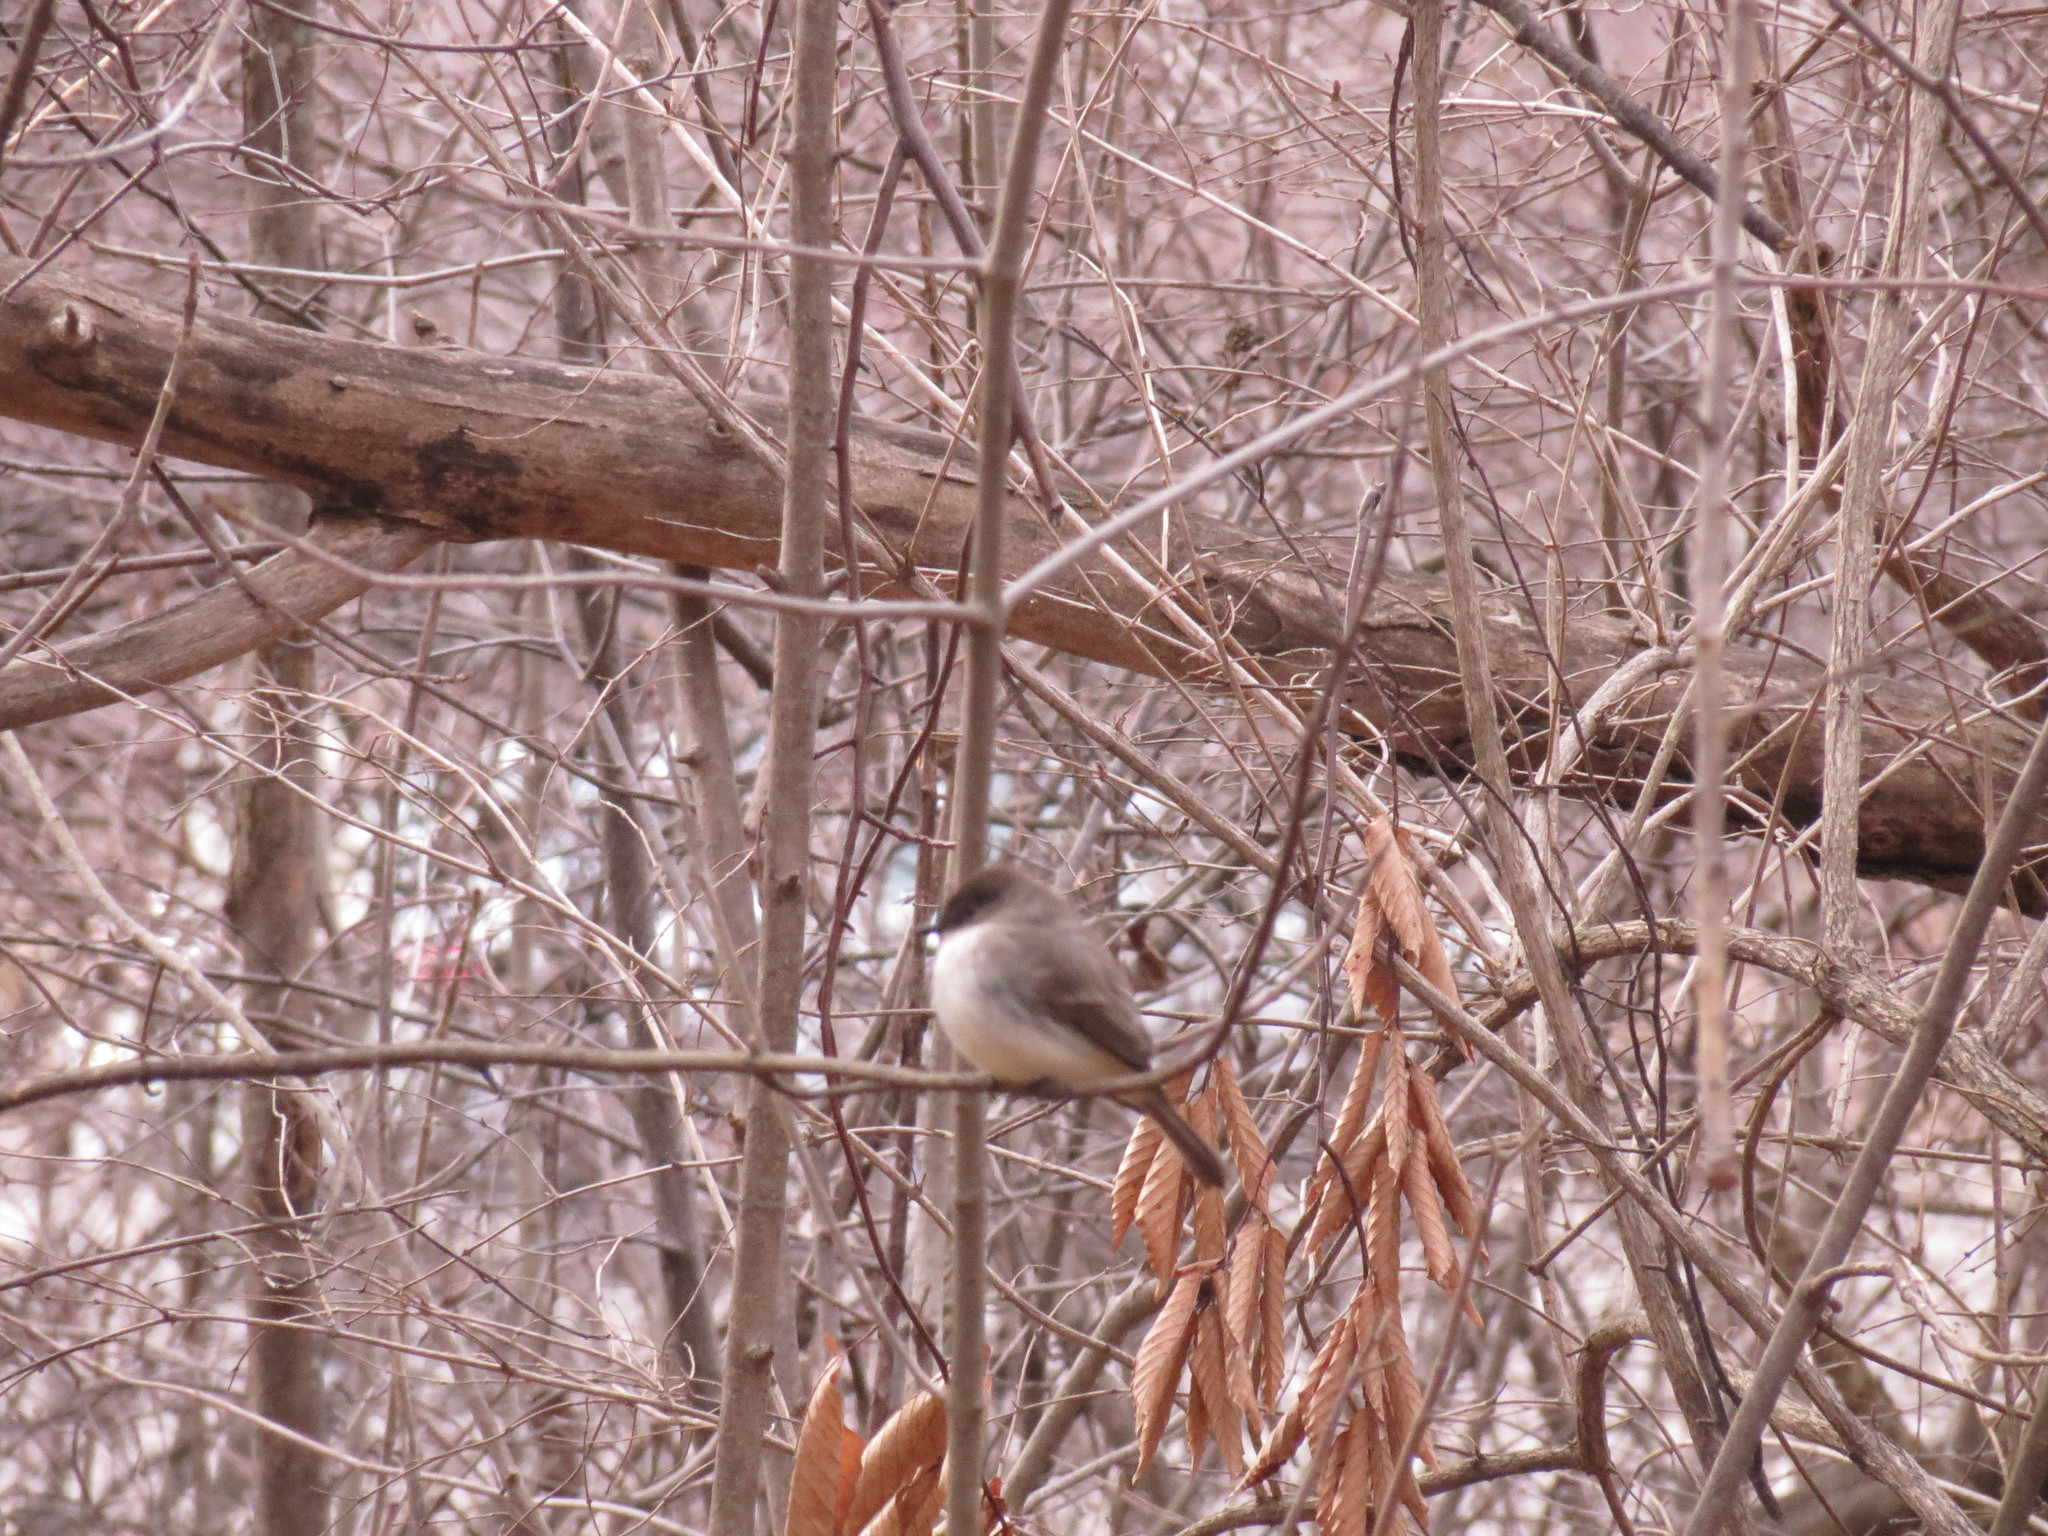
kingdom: Animalia
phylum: Chordata
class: Aves
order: Passeriformes
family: Tyrannidae
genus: Sayornis
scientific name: Sayornis phoebe
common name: Eastern phoebe
